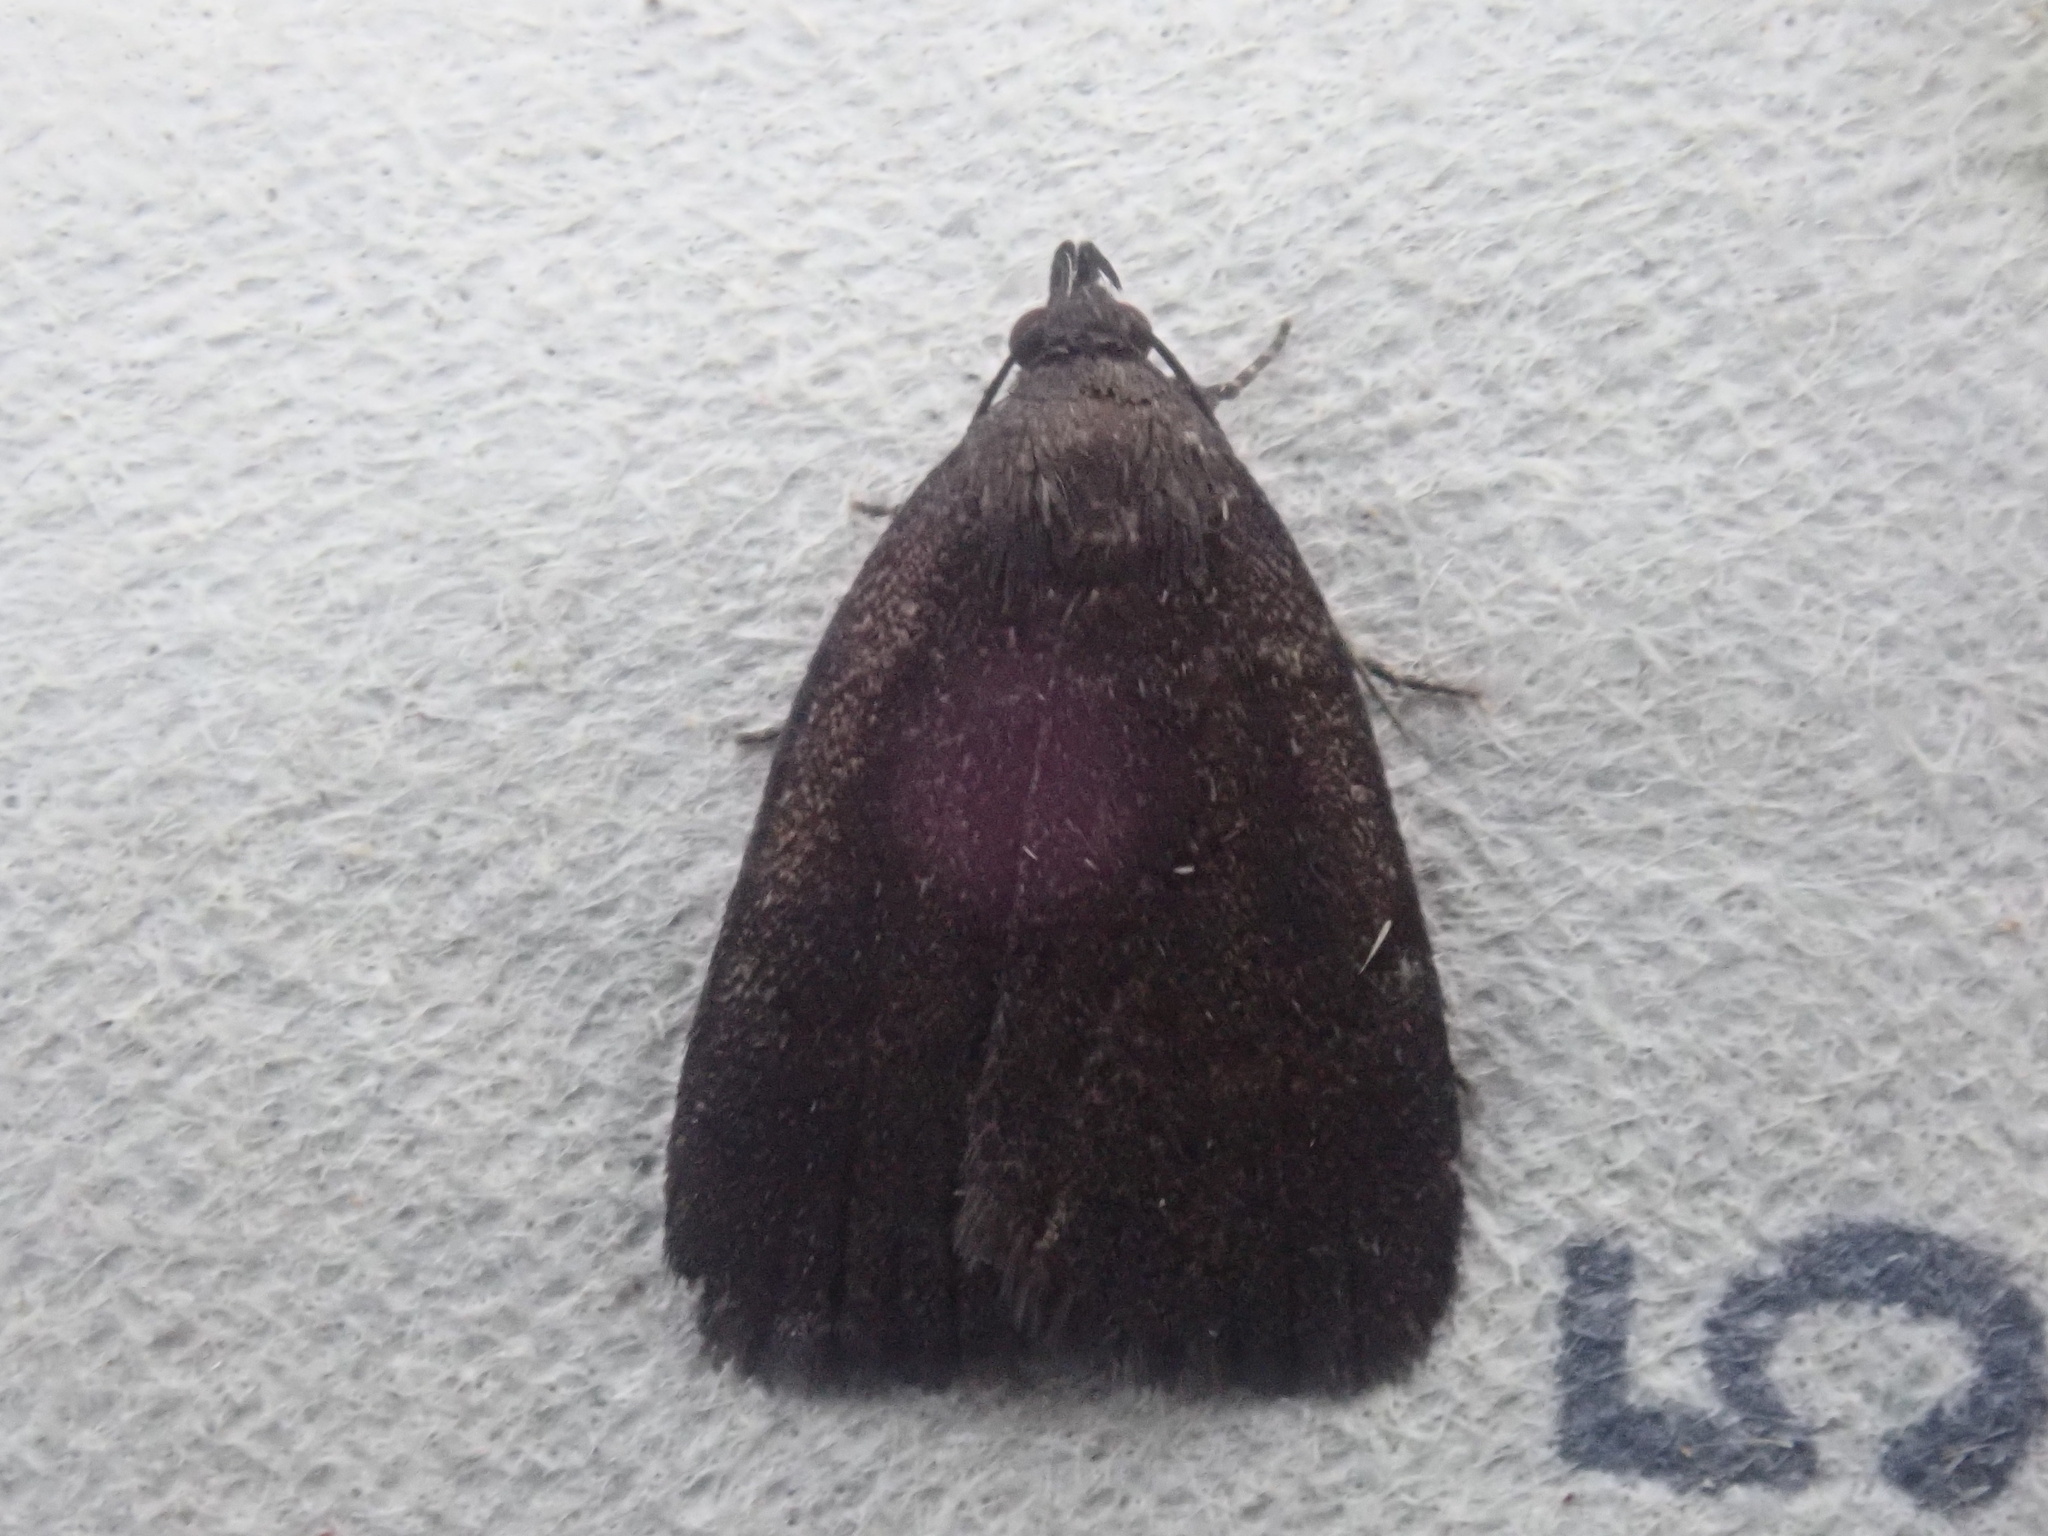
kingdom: Animalia
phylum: Arthropoda
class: Insecta
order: Lepidoptera
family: Erebidae
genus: Idia
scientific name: Idia rotundalis
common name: Rotund idia moth
